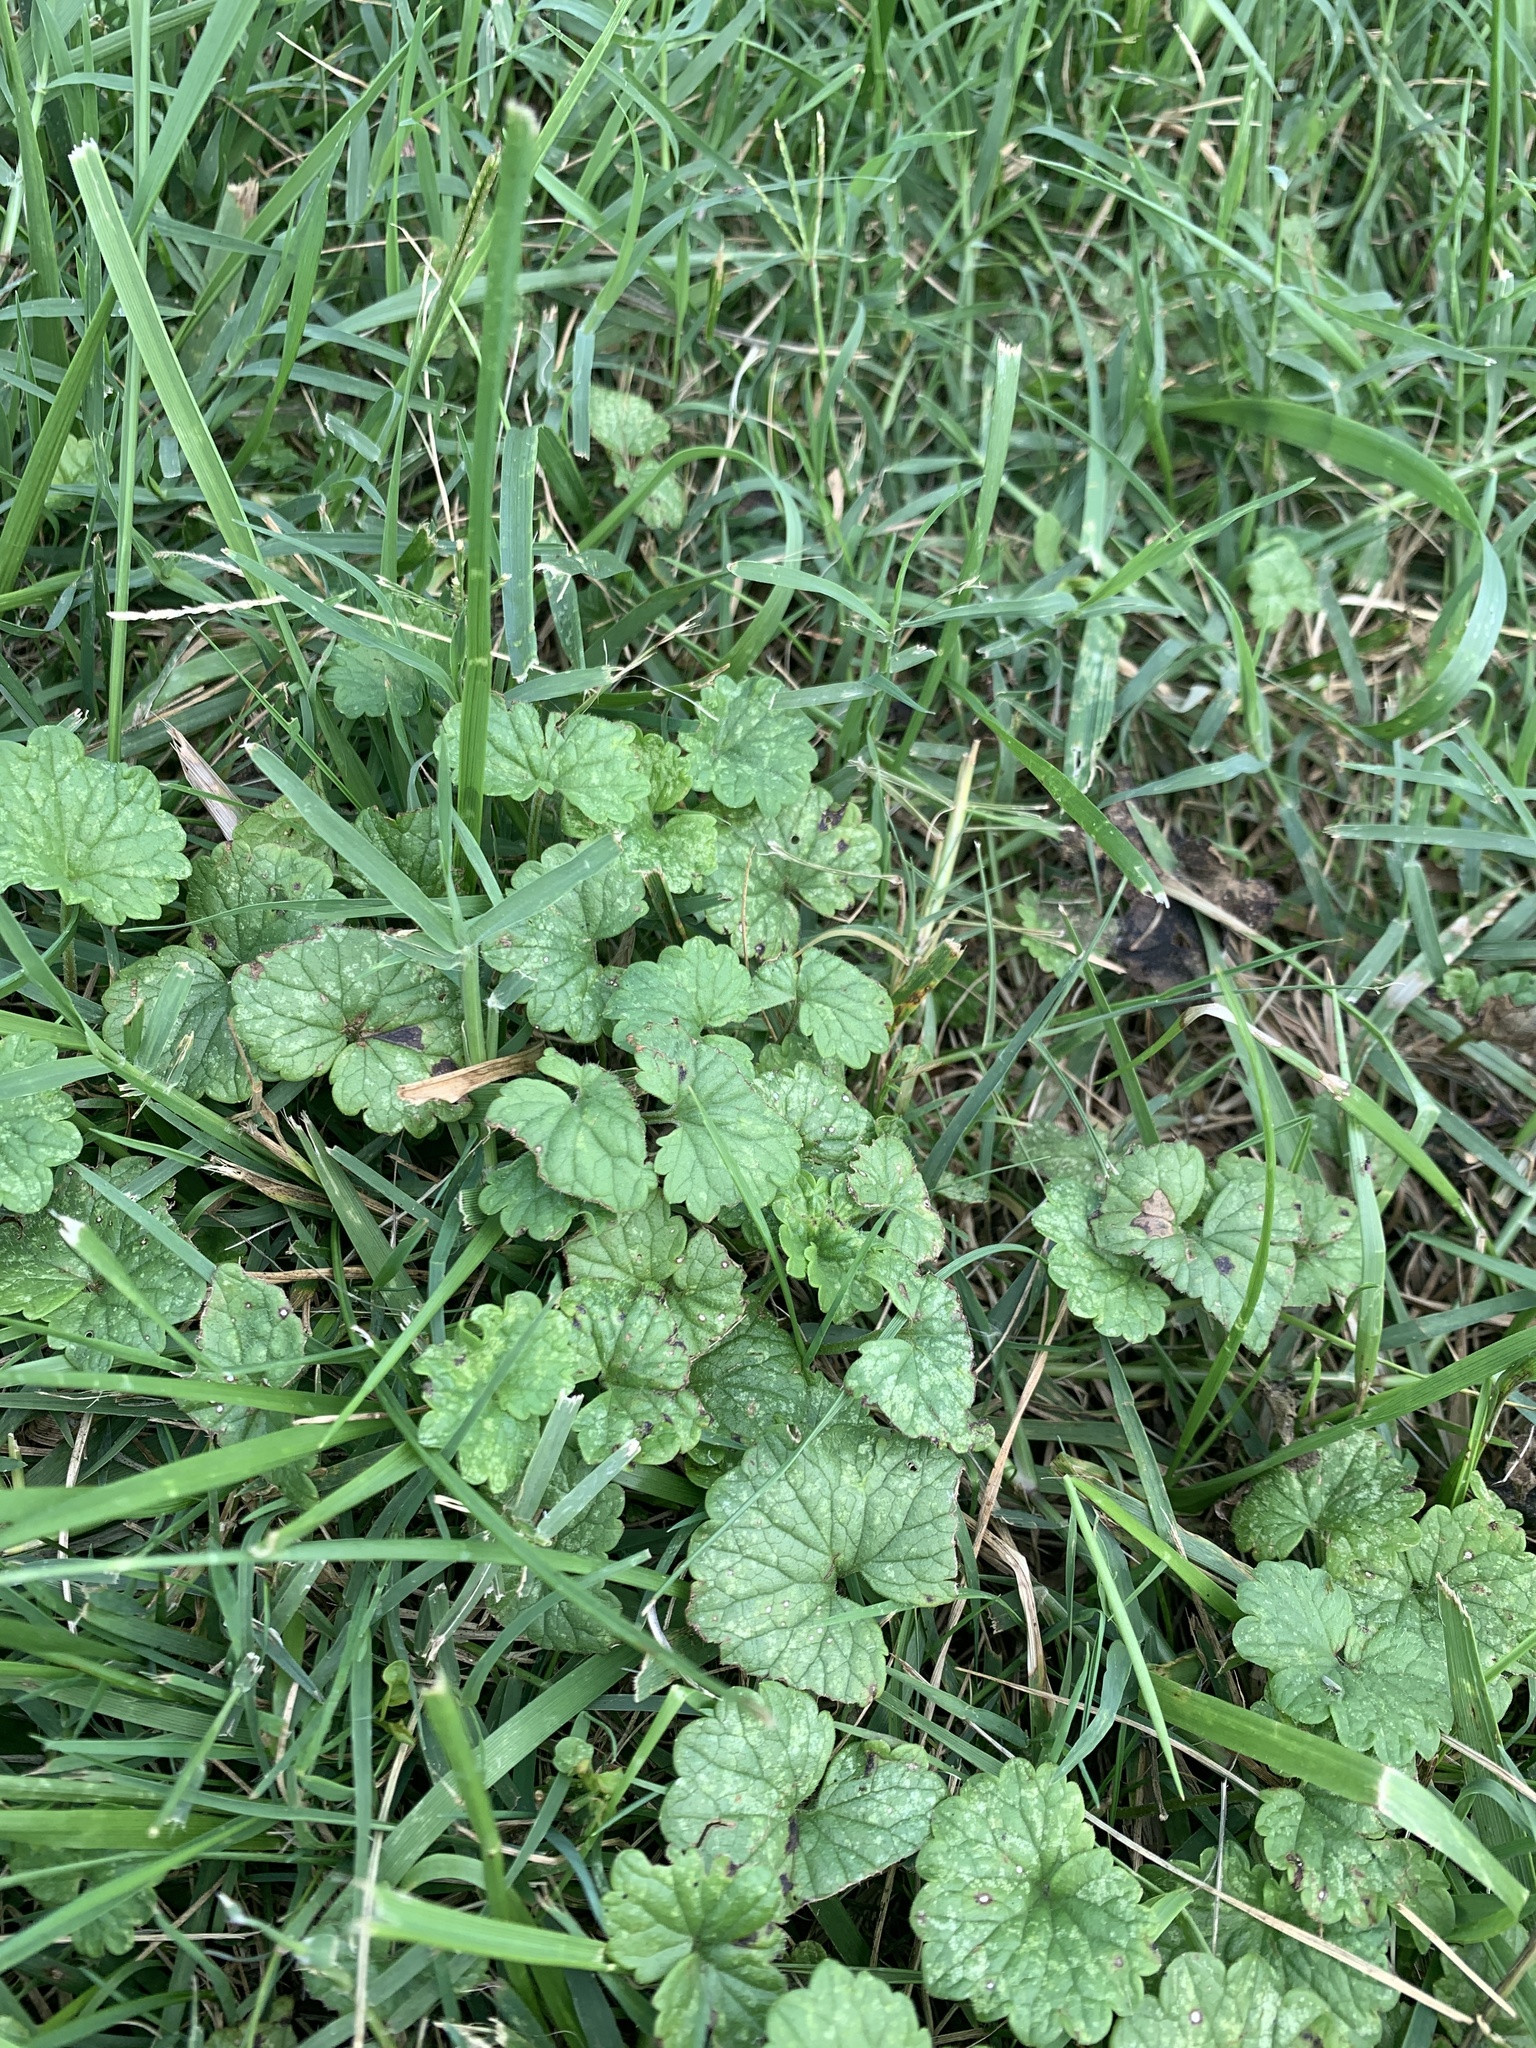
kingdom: Plantae
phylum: Tracheophyta
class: Magnoliopsida
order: Brassicales
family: Brassicaceae
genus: Alliaria
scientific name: Alliaria petiolata
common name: Garlic mustard
